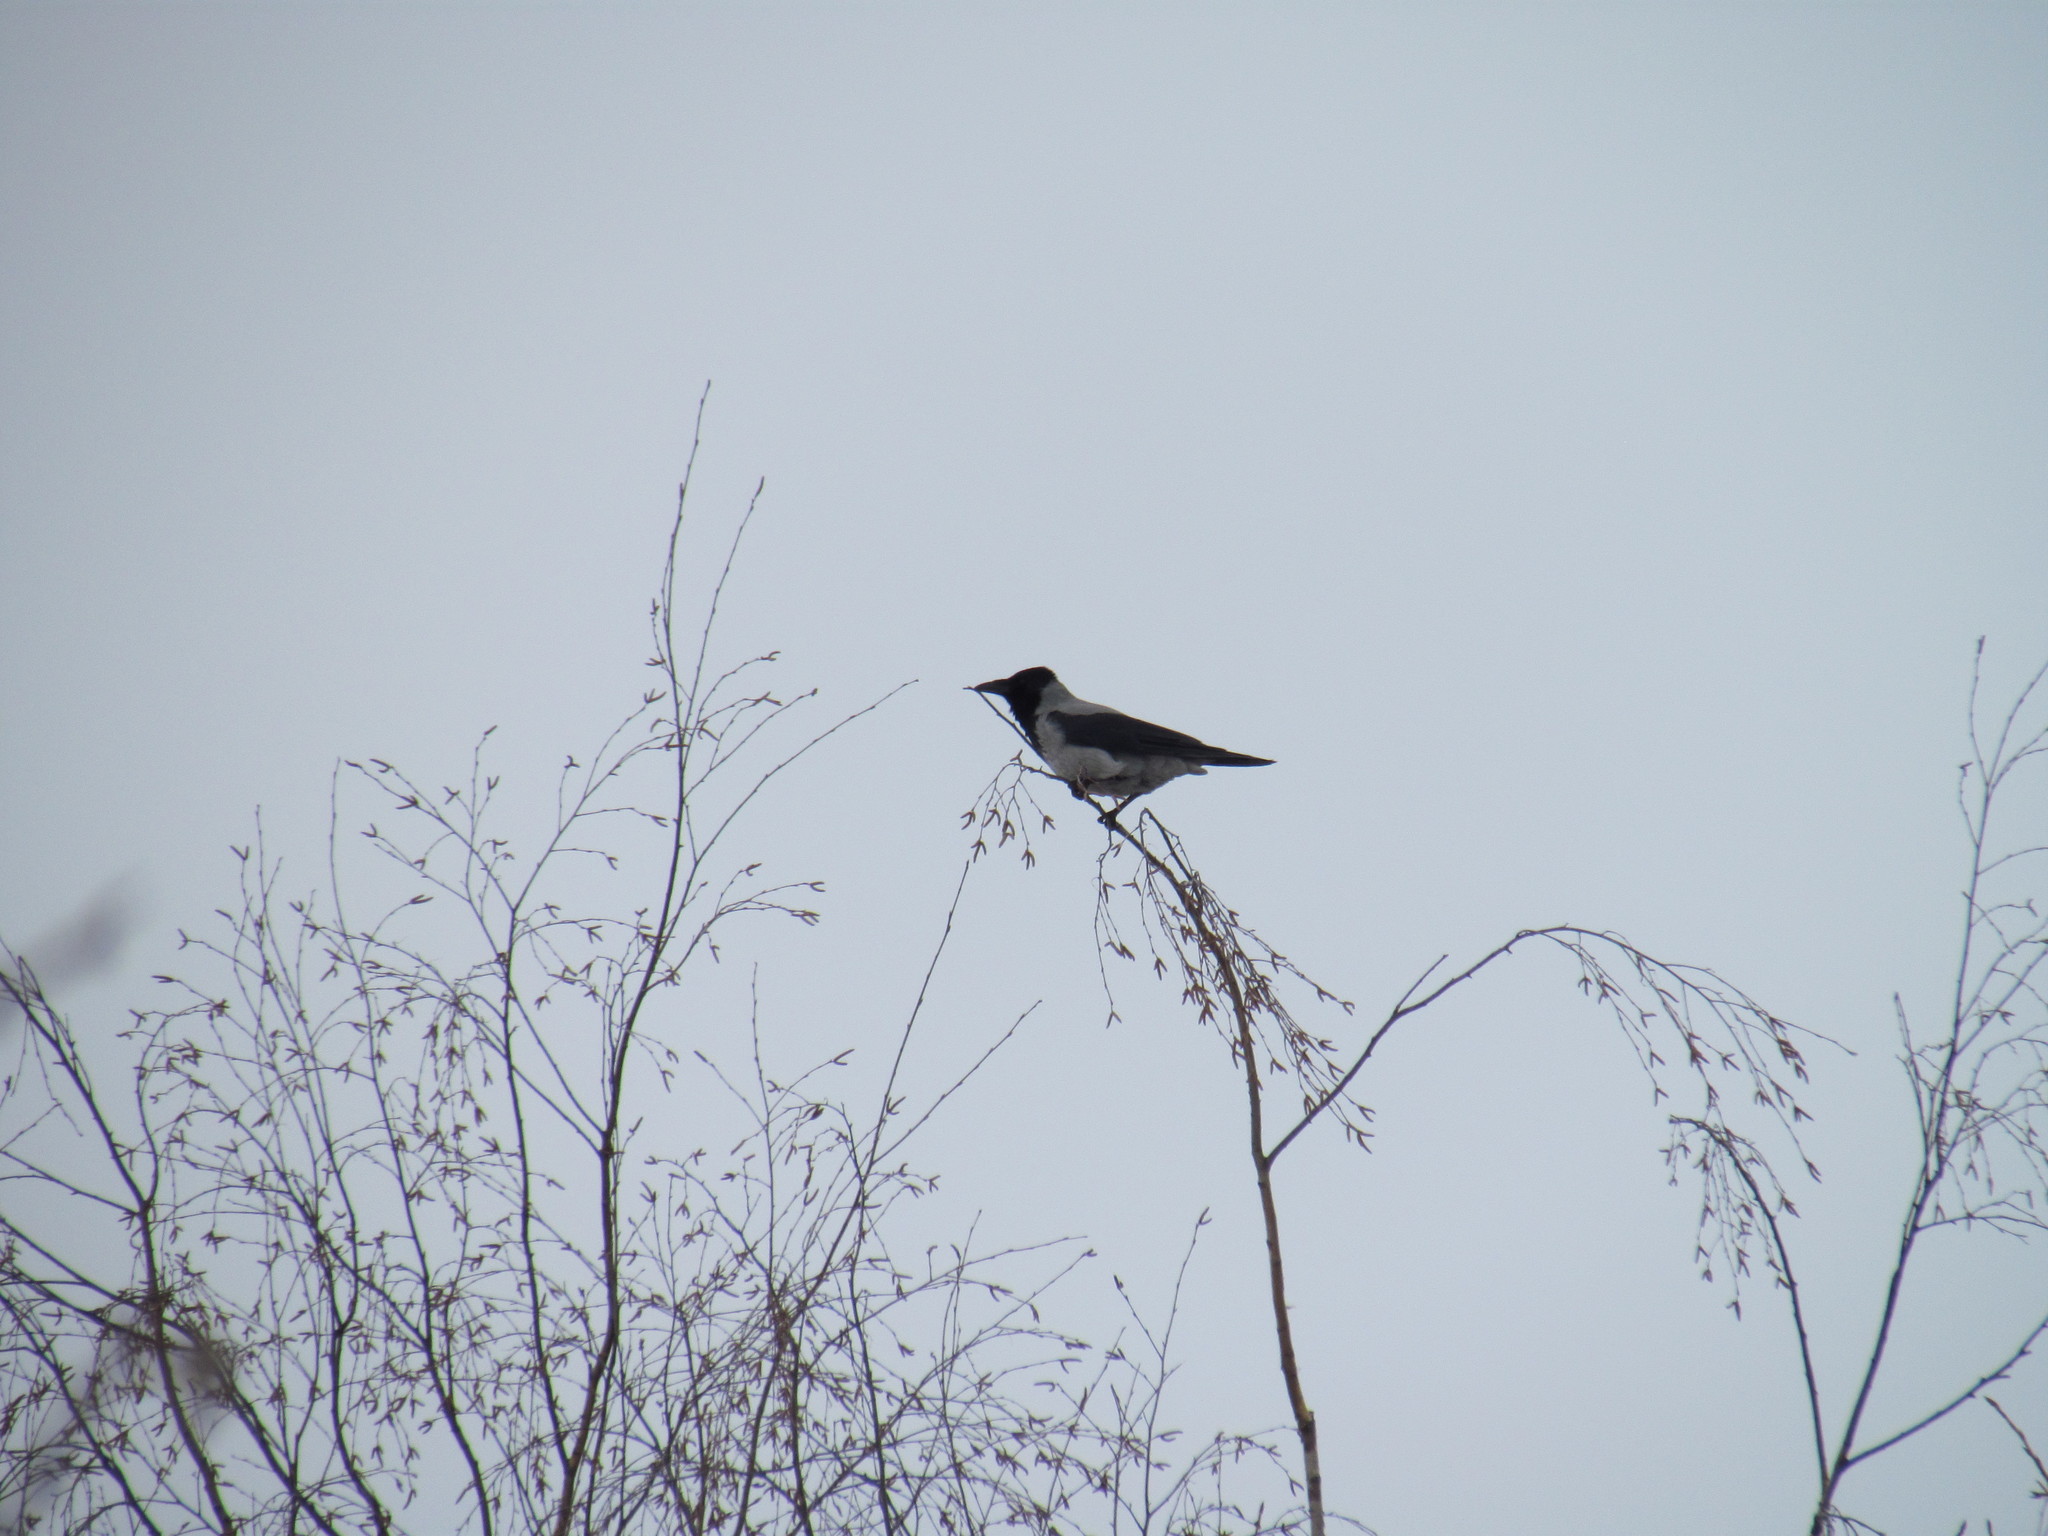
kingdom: Animalia
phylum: Chordata
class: Aves
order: Passeriformes
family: Corvidae
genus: Corvus
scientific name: Corvus cornix
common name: Hooded crow
